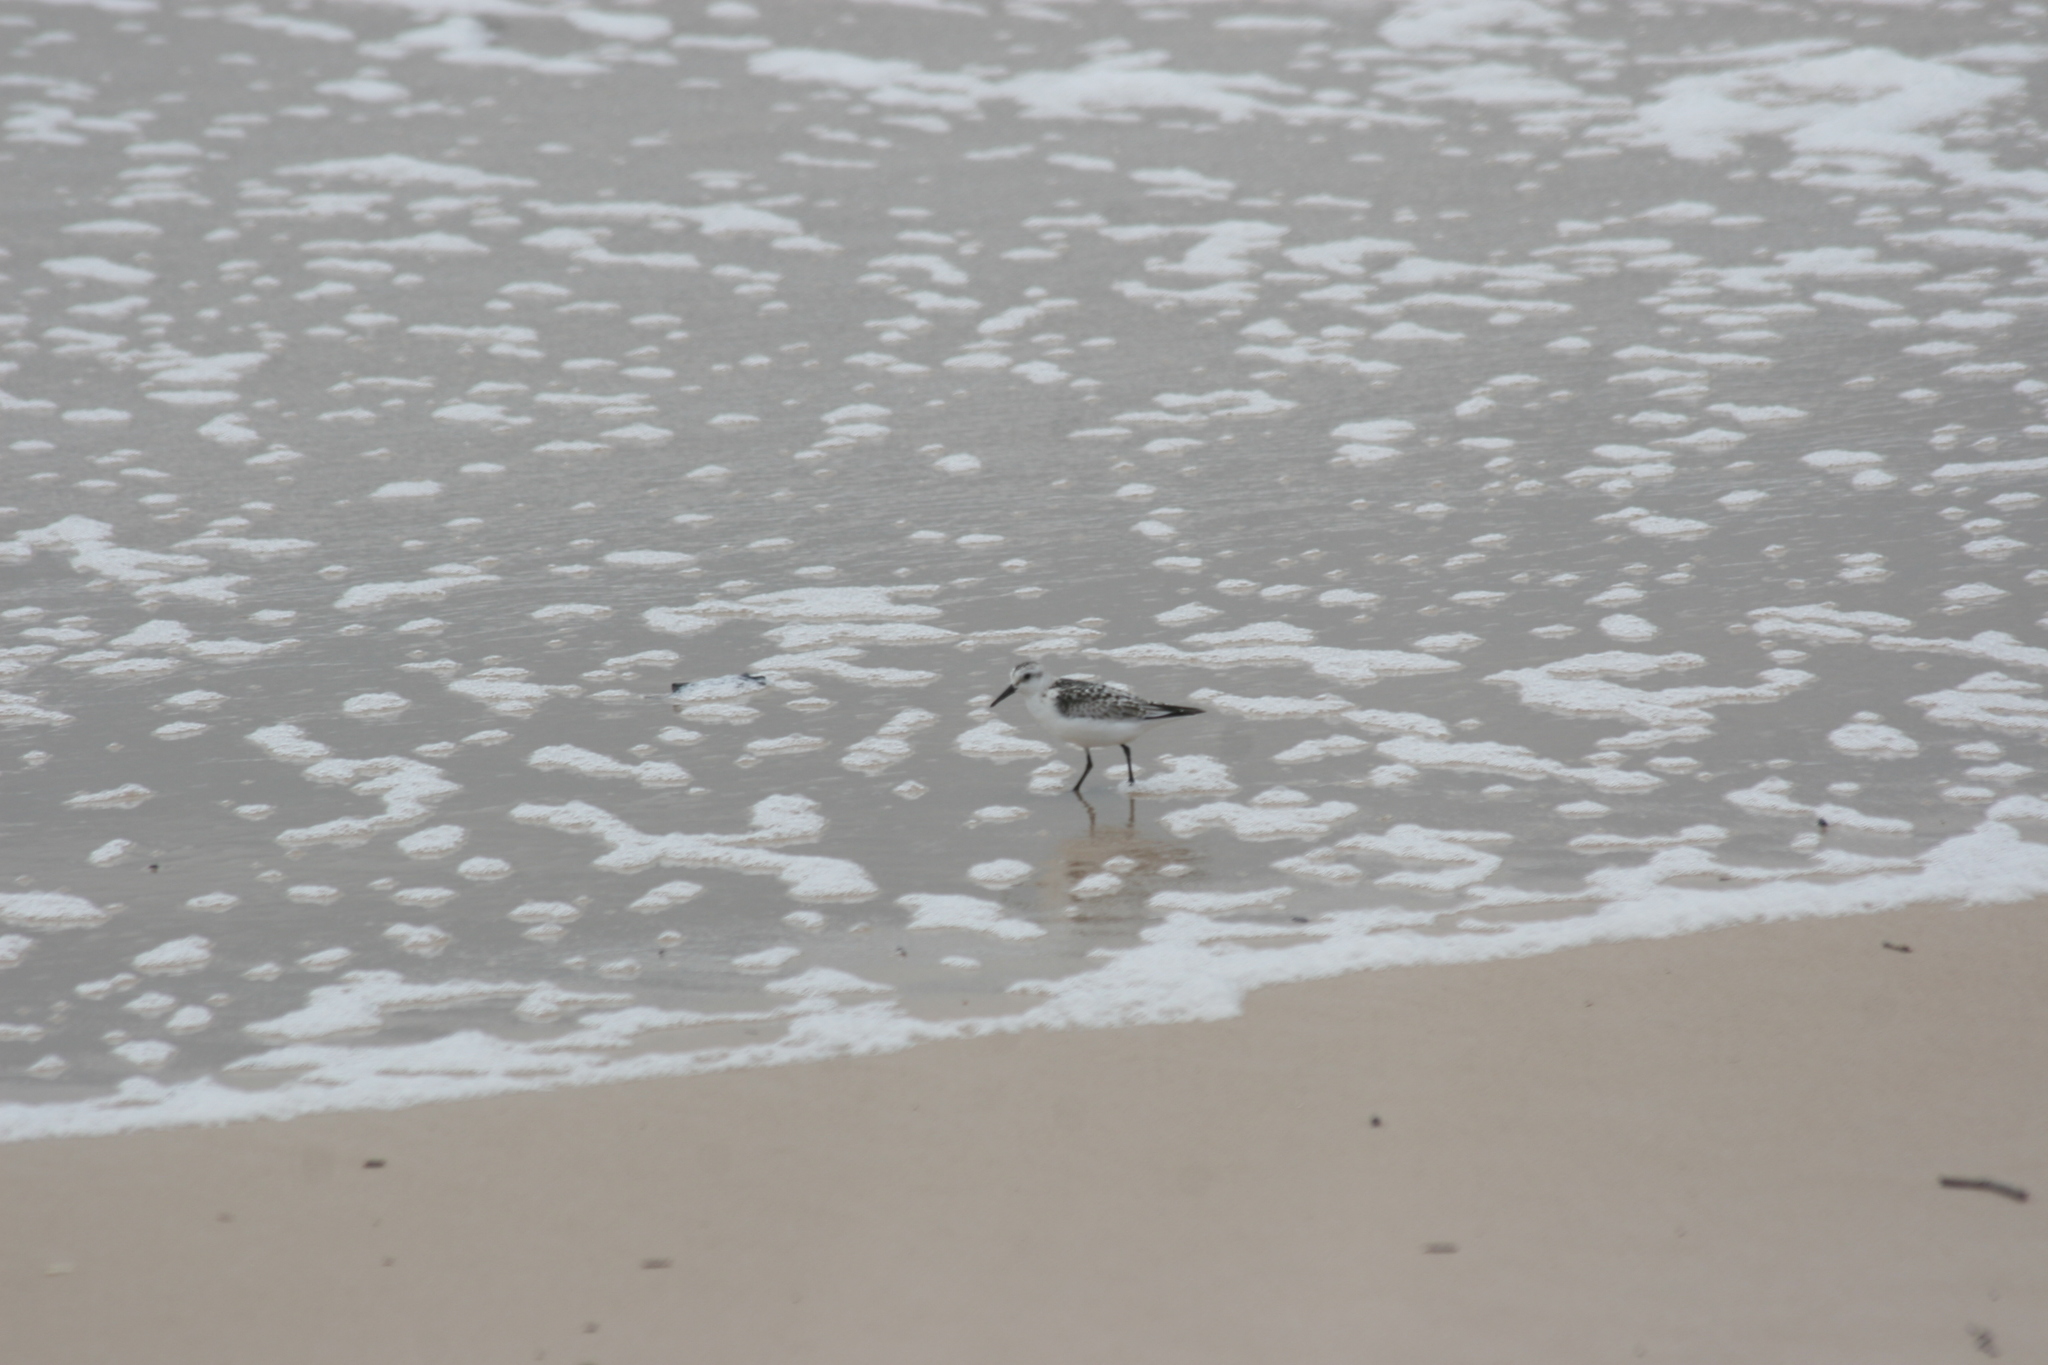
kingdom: Animalia
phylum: Chordata
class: Aves
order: Charadriiformes
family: Scolopacidae
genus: Calidris
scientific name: Calidris alba
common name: Sanderling
